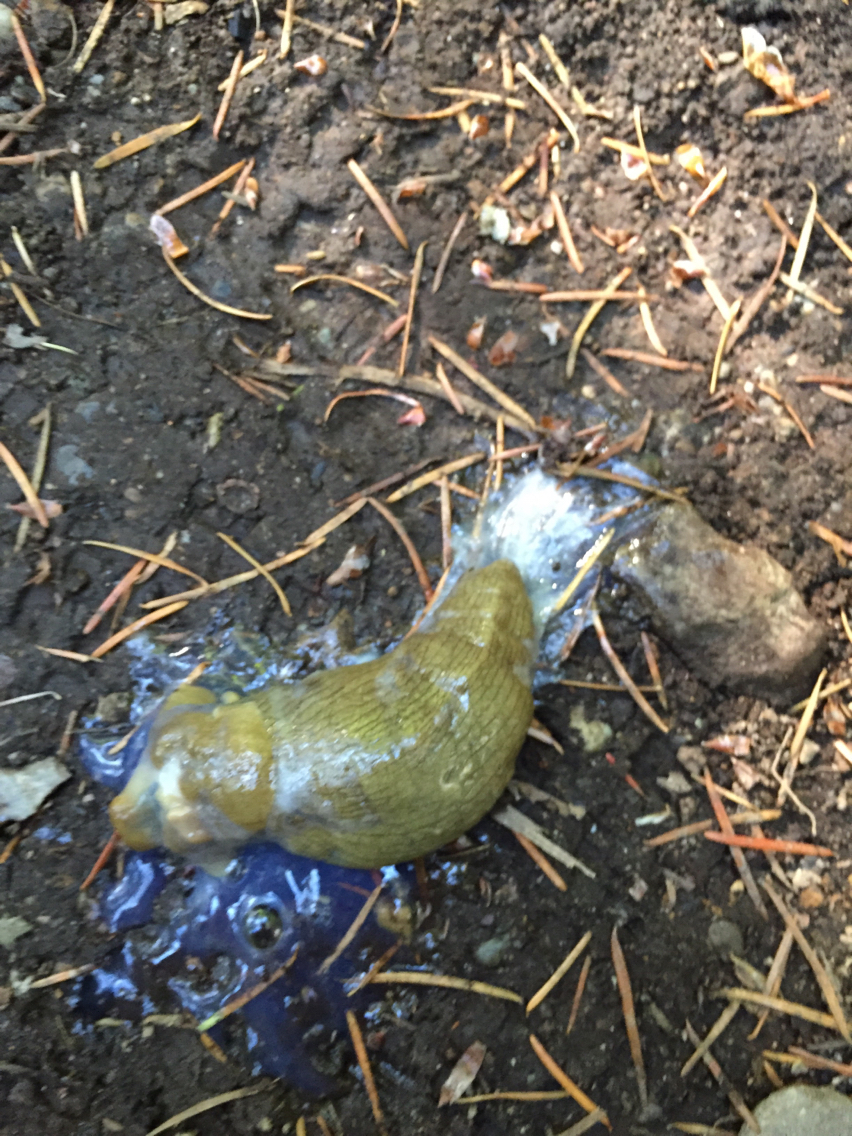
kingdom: Animalia
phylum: Mollusca
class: Gastropoda
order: Stylommatophora
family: Ariolimacidae
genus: Ariolimax
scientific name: Ariolimax columbianus
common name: Pacific banana slug
